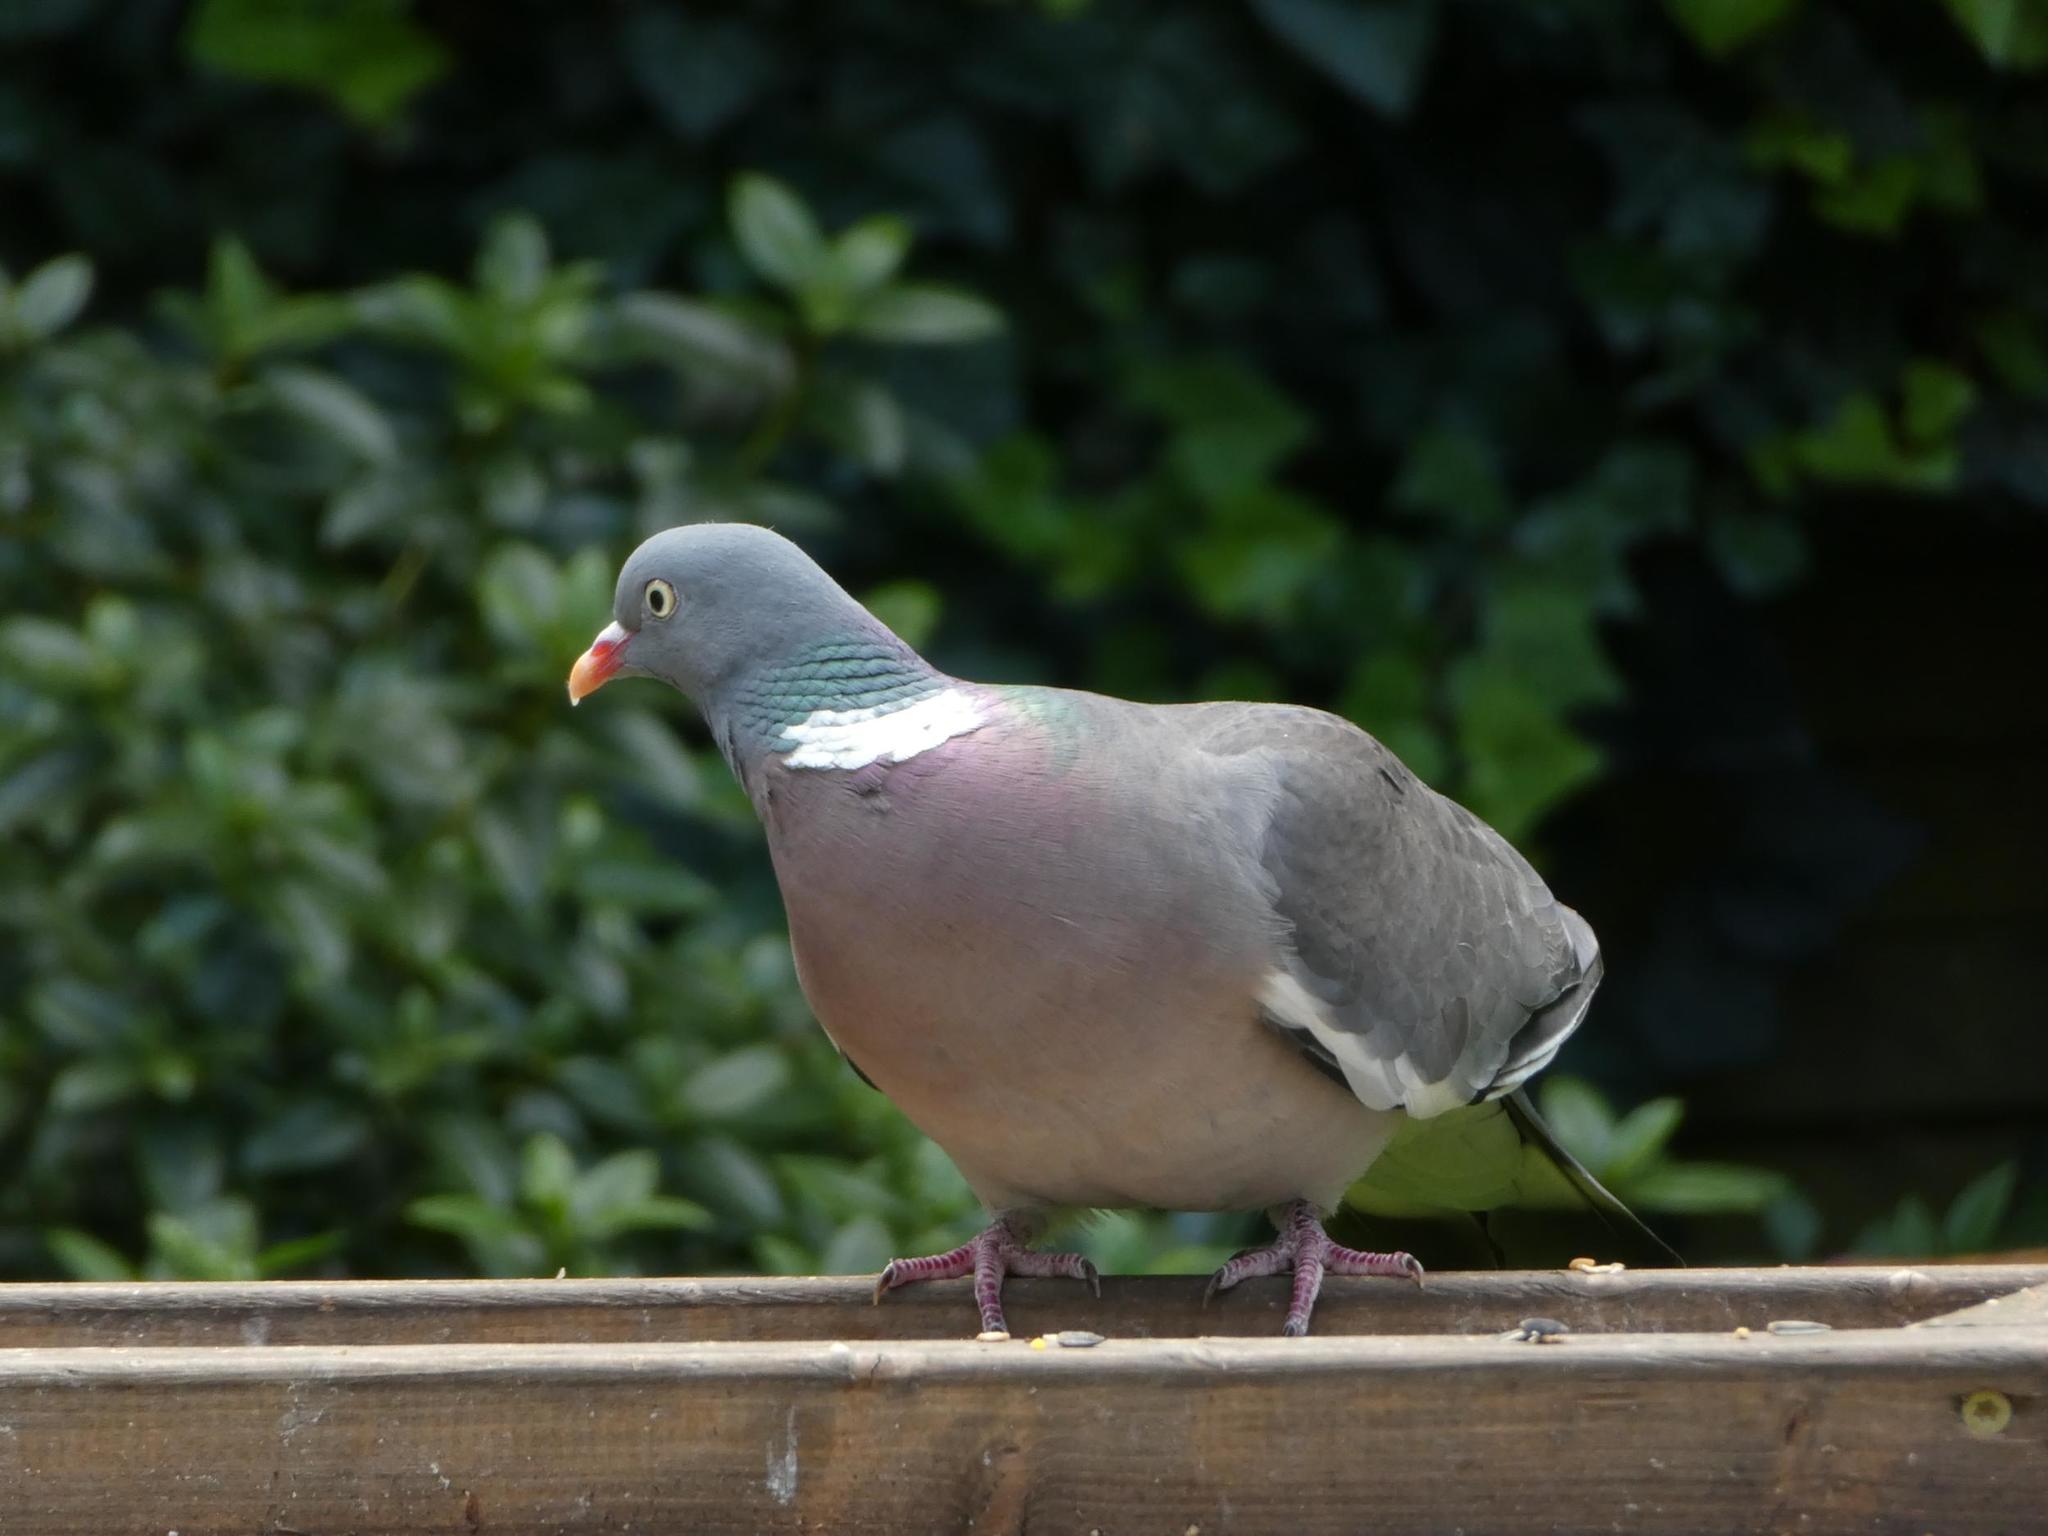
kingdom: Animalia
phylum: Chordata
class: Aves
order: Columbiformes
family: Columbidae
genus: Columba
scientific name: Columba palumbus
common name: Common wood pigeon
